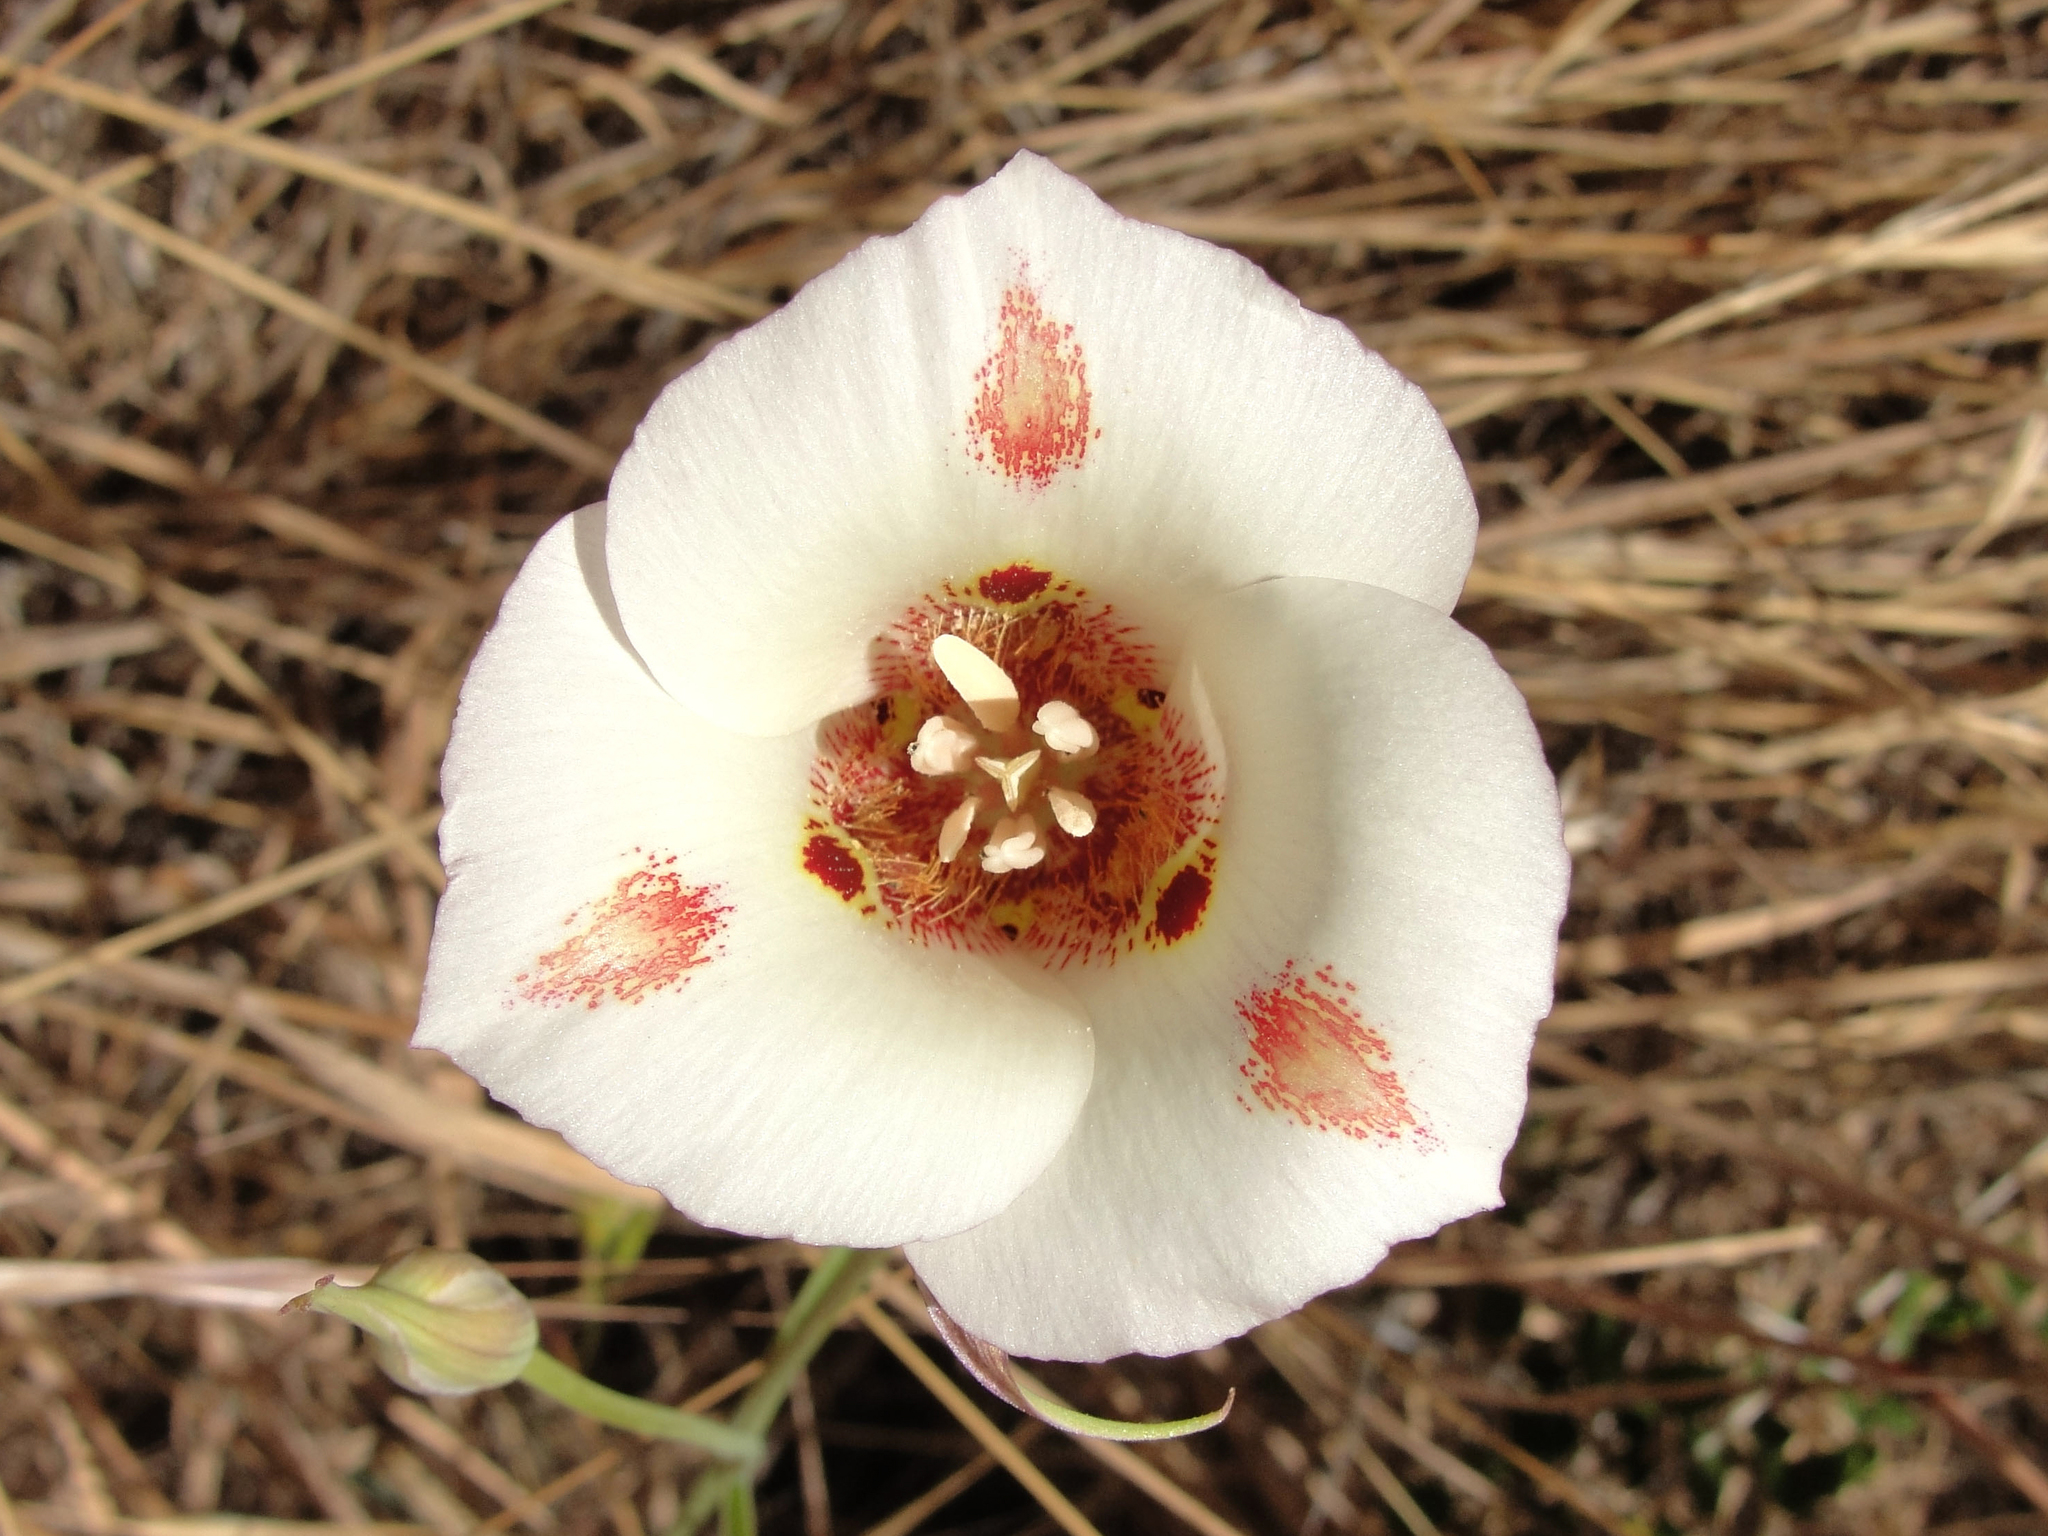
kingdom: Plantae
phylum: Tracheophyta
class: Liliopsida
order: Liliales
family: Liliaceae
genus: Calochortus
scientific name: Calochortus venustus
